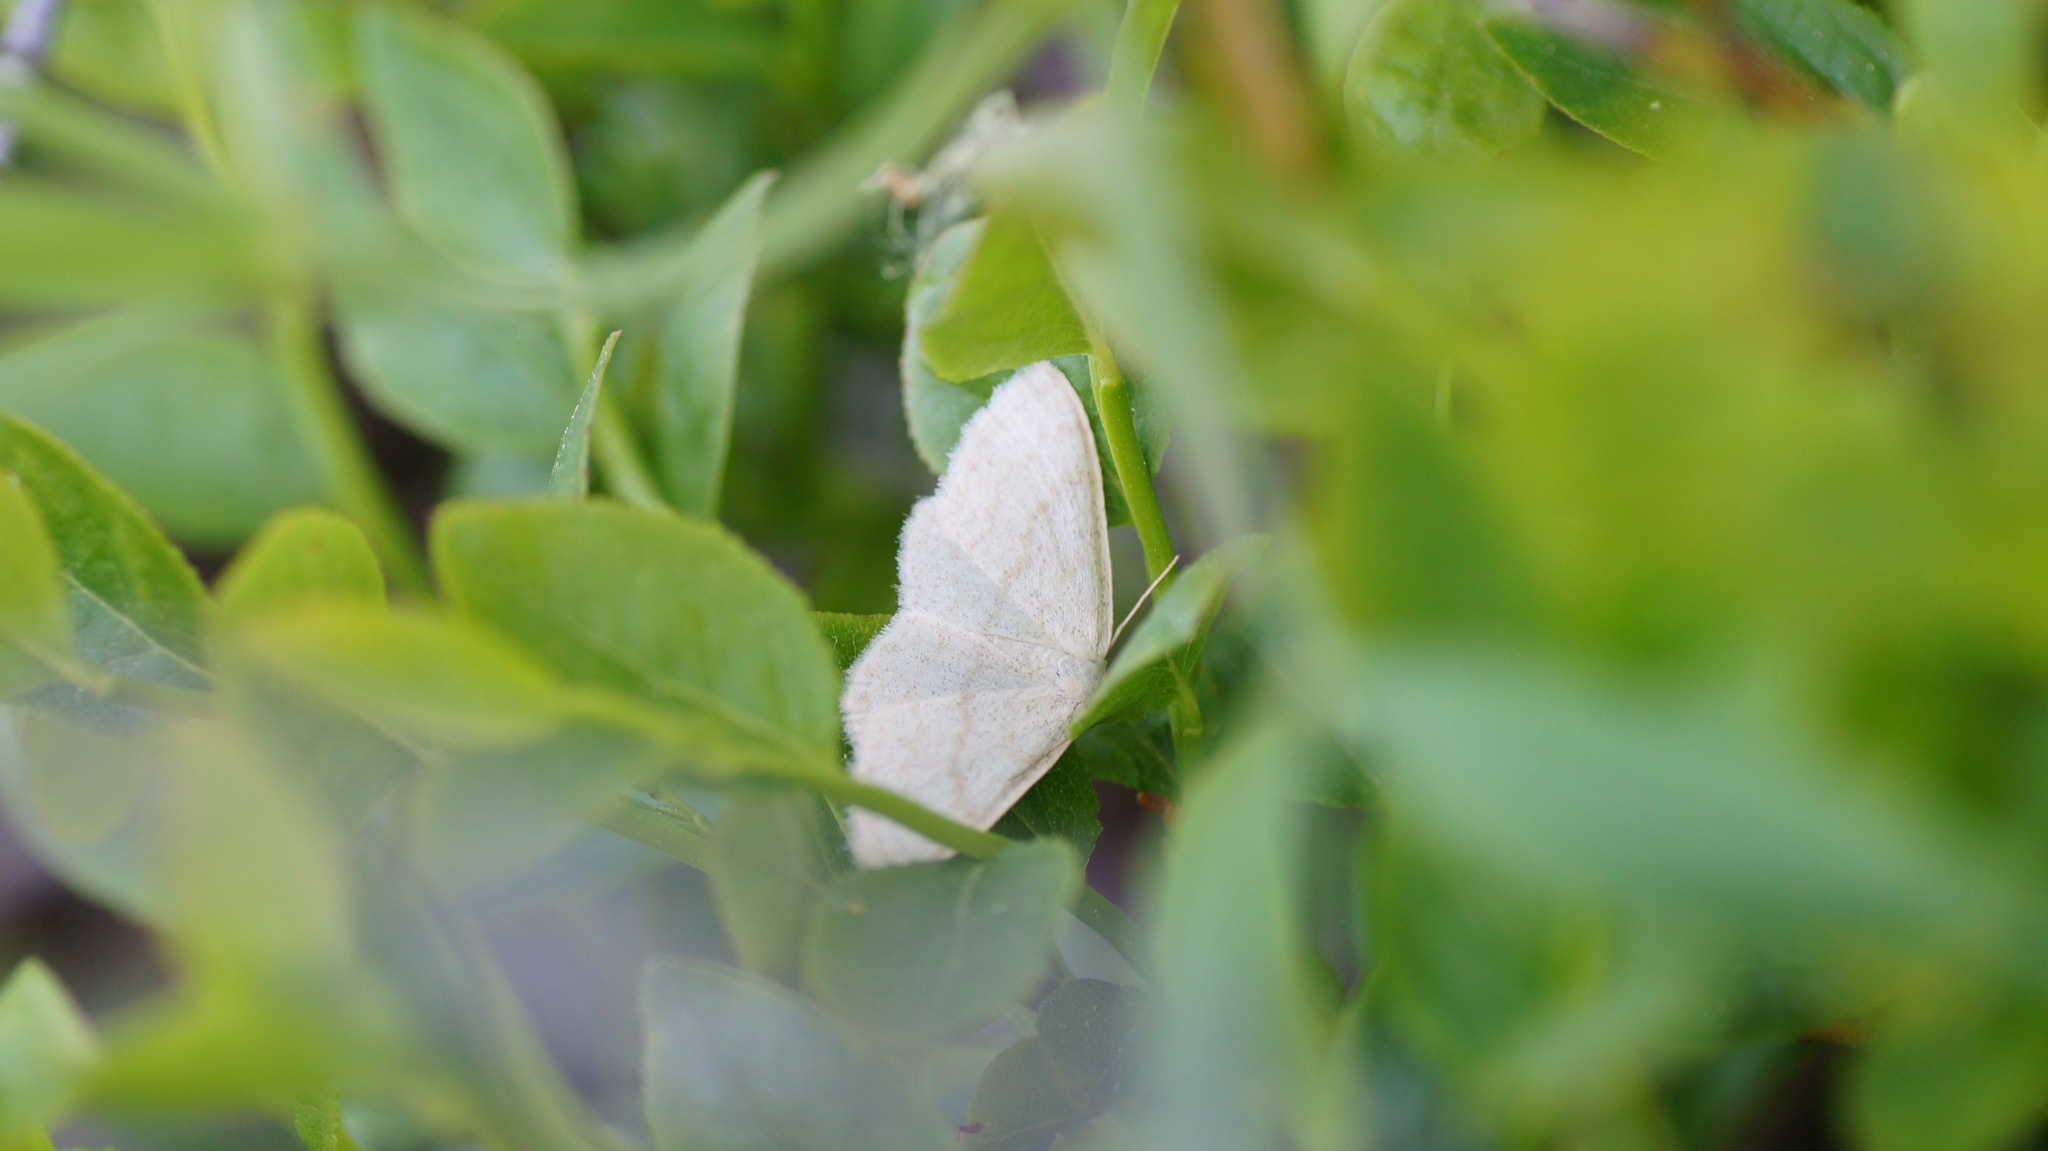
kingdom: Animalia
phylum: Arthropoda
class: Insecta
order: Lepidoptera
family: Geometridae
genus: Scopula
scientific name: Scopula ternata
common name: Smoky wave
